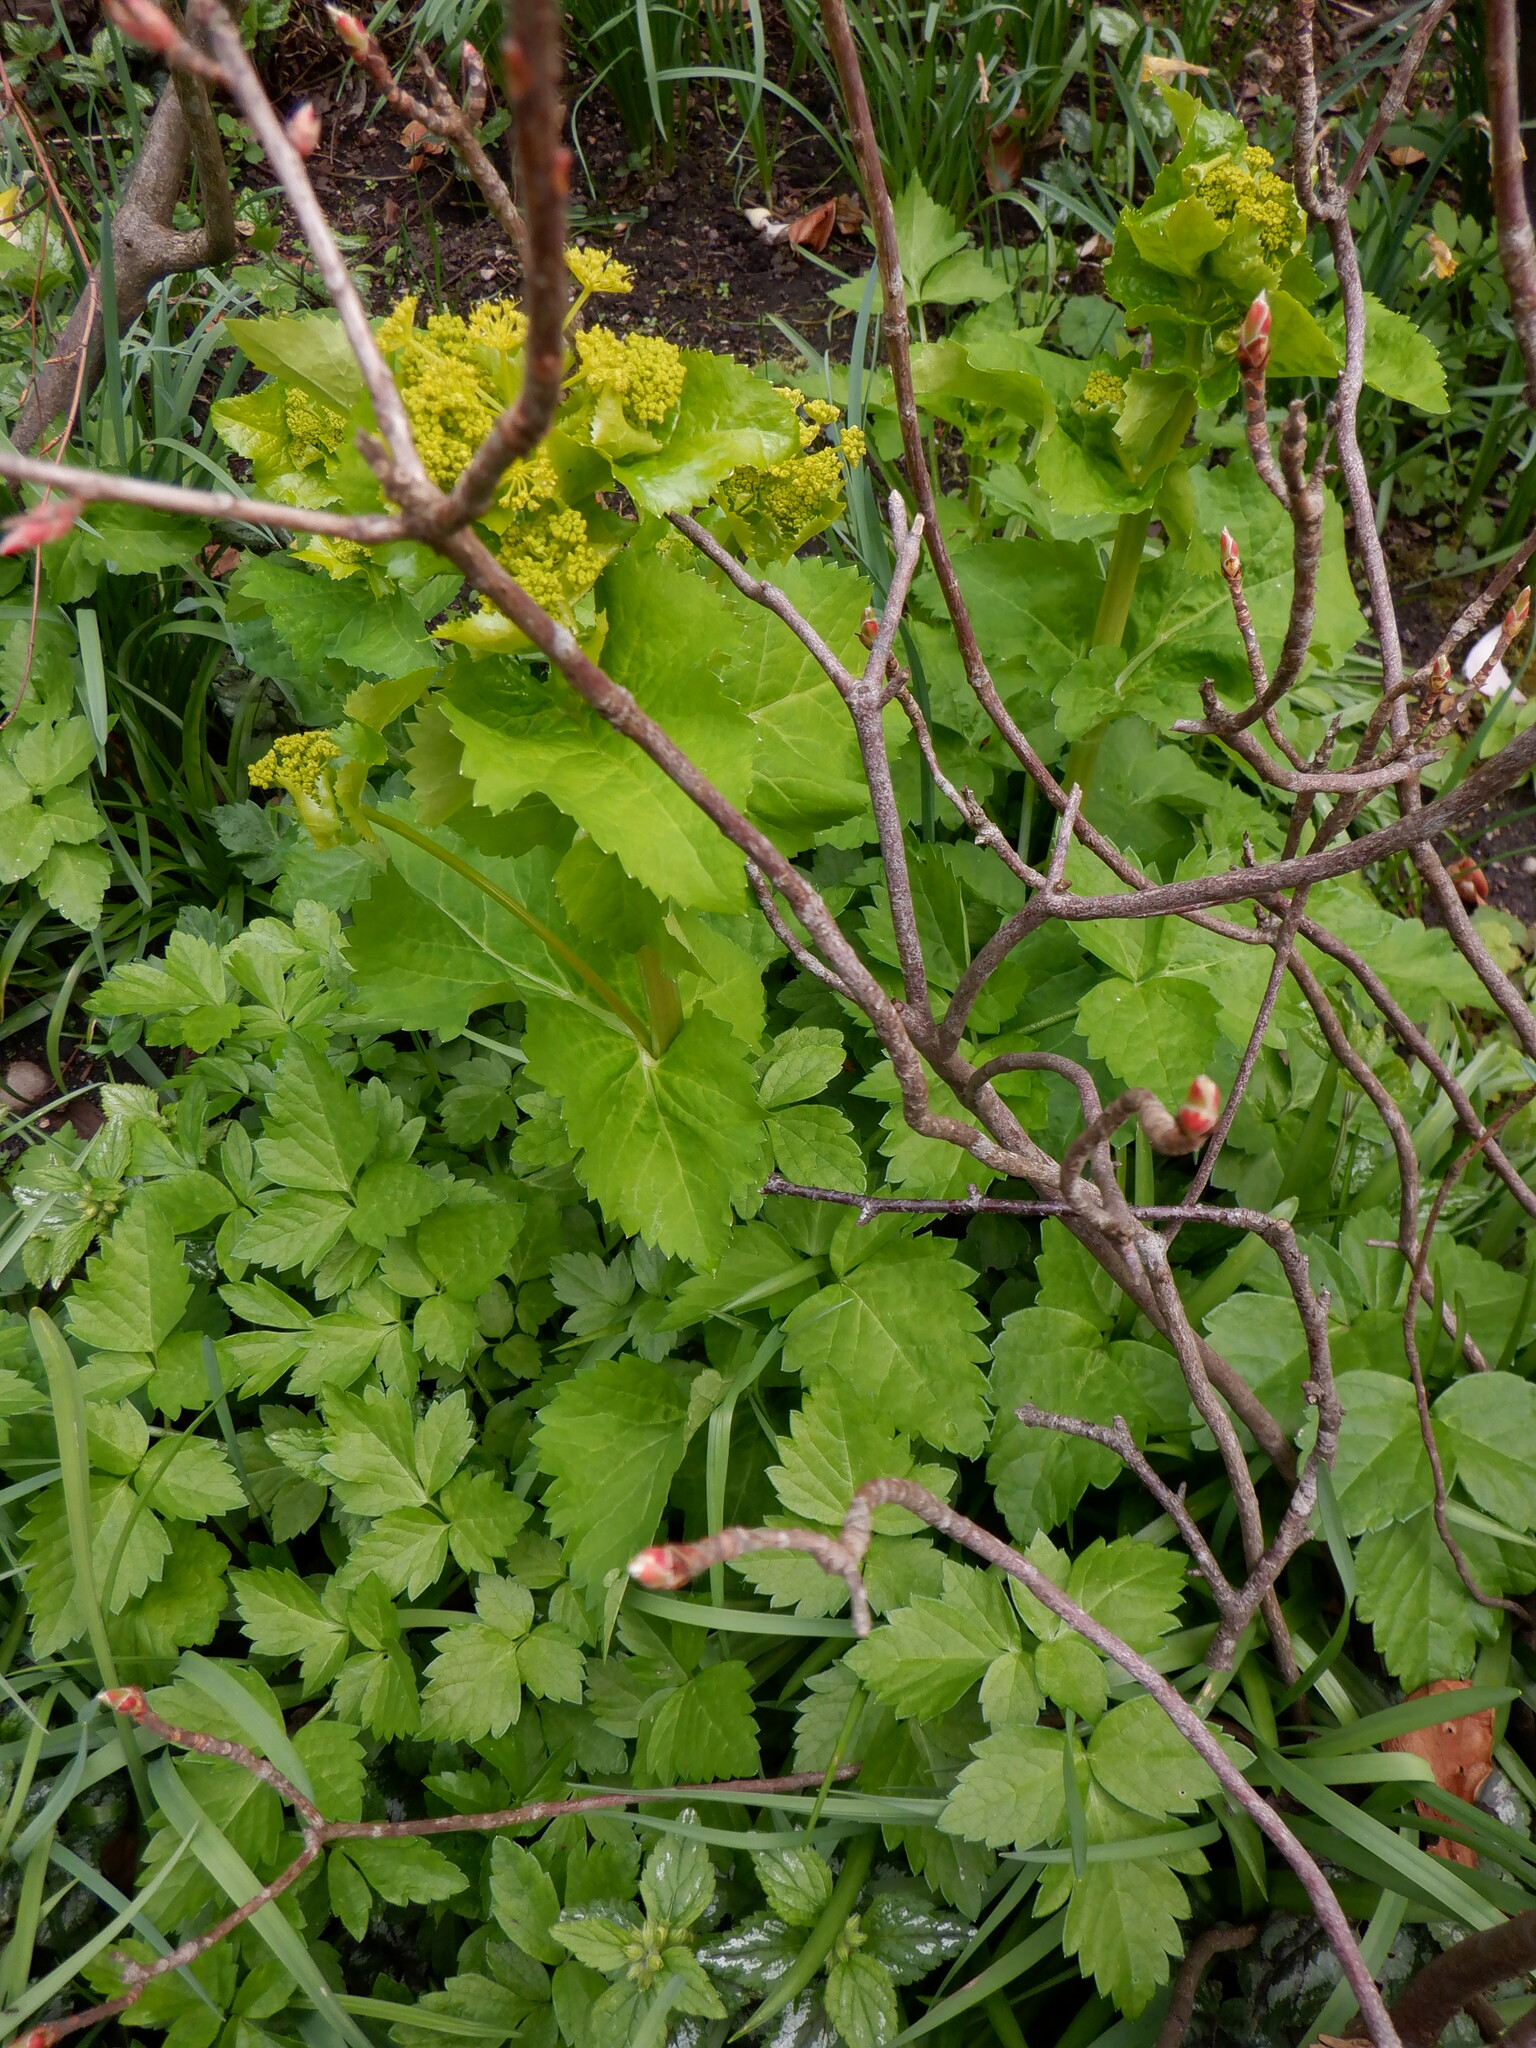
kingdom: Plantae
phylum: Tracheophyta
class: Magnoliopsida
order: Apiales
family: Apiaceae
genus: Smyrnium
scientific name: Smyrnium perfoliatum
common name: Perfoliate alexanders
